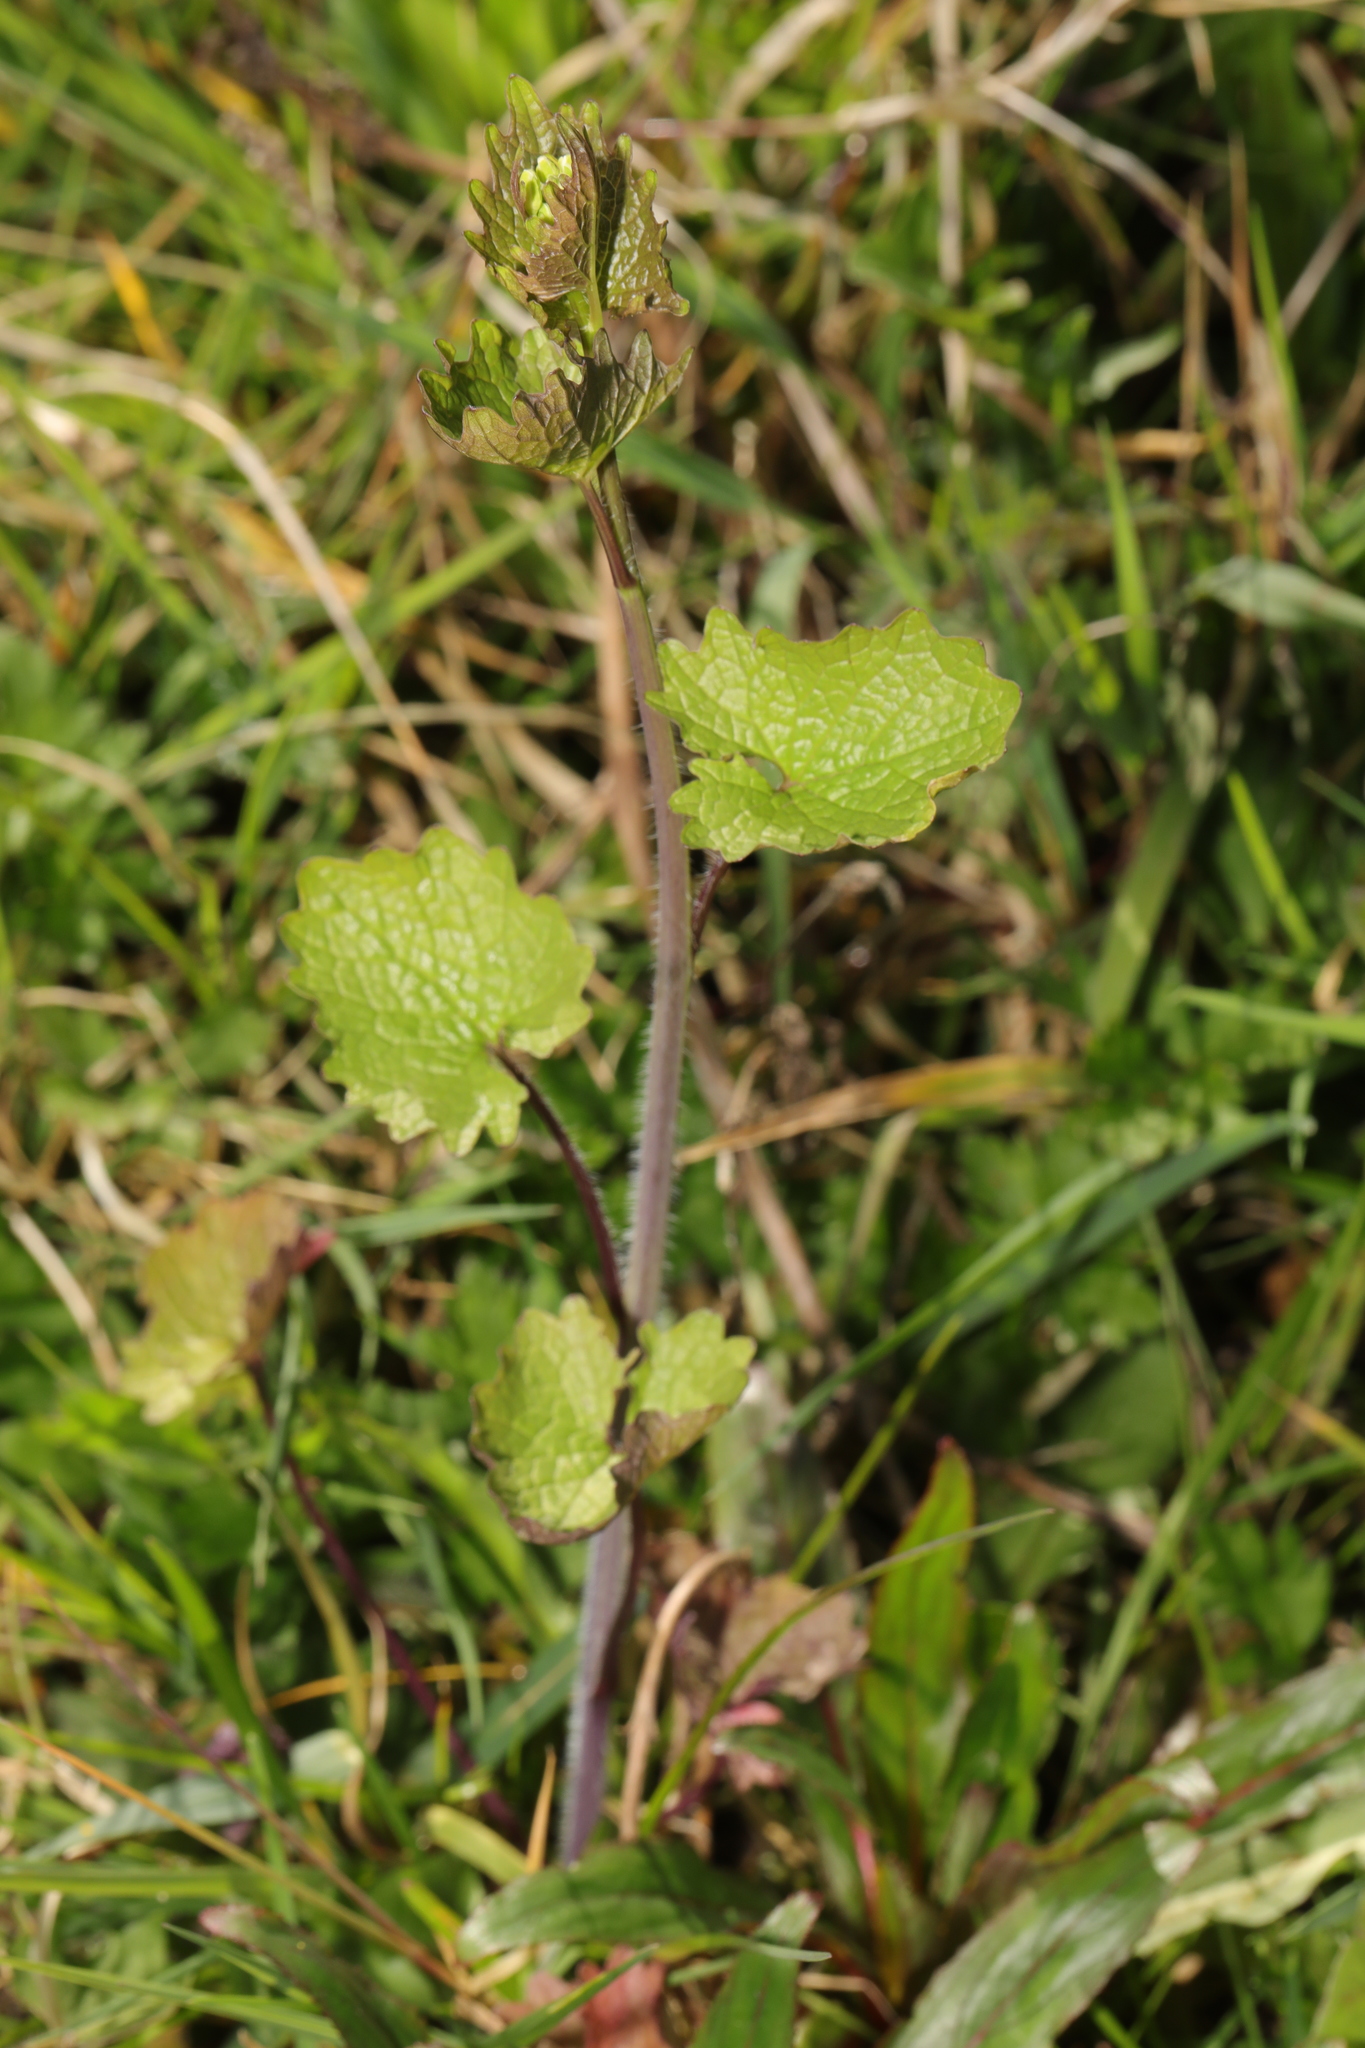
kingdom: Plantae
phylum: Tracheophyta
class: Magnoliopsida
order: Brassicales
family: Brassicaceae
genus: Alliaria
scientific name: Alliaria petiolata
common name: Garlic mustard
